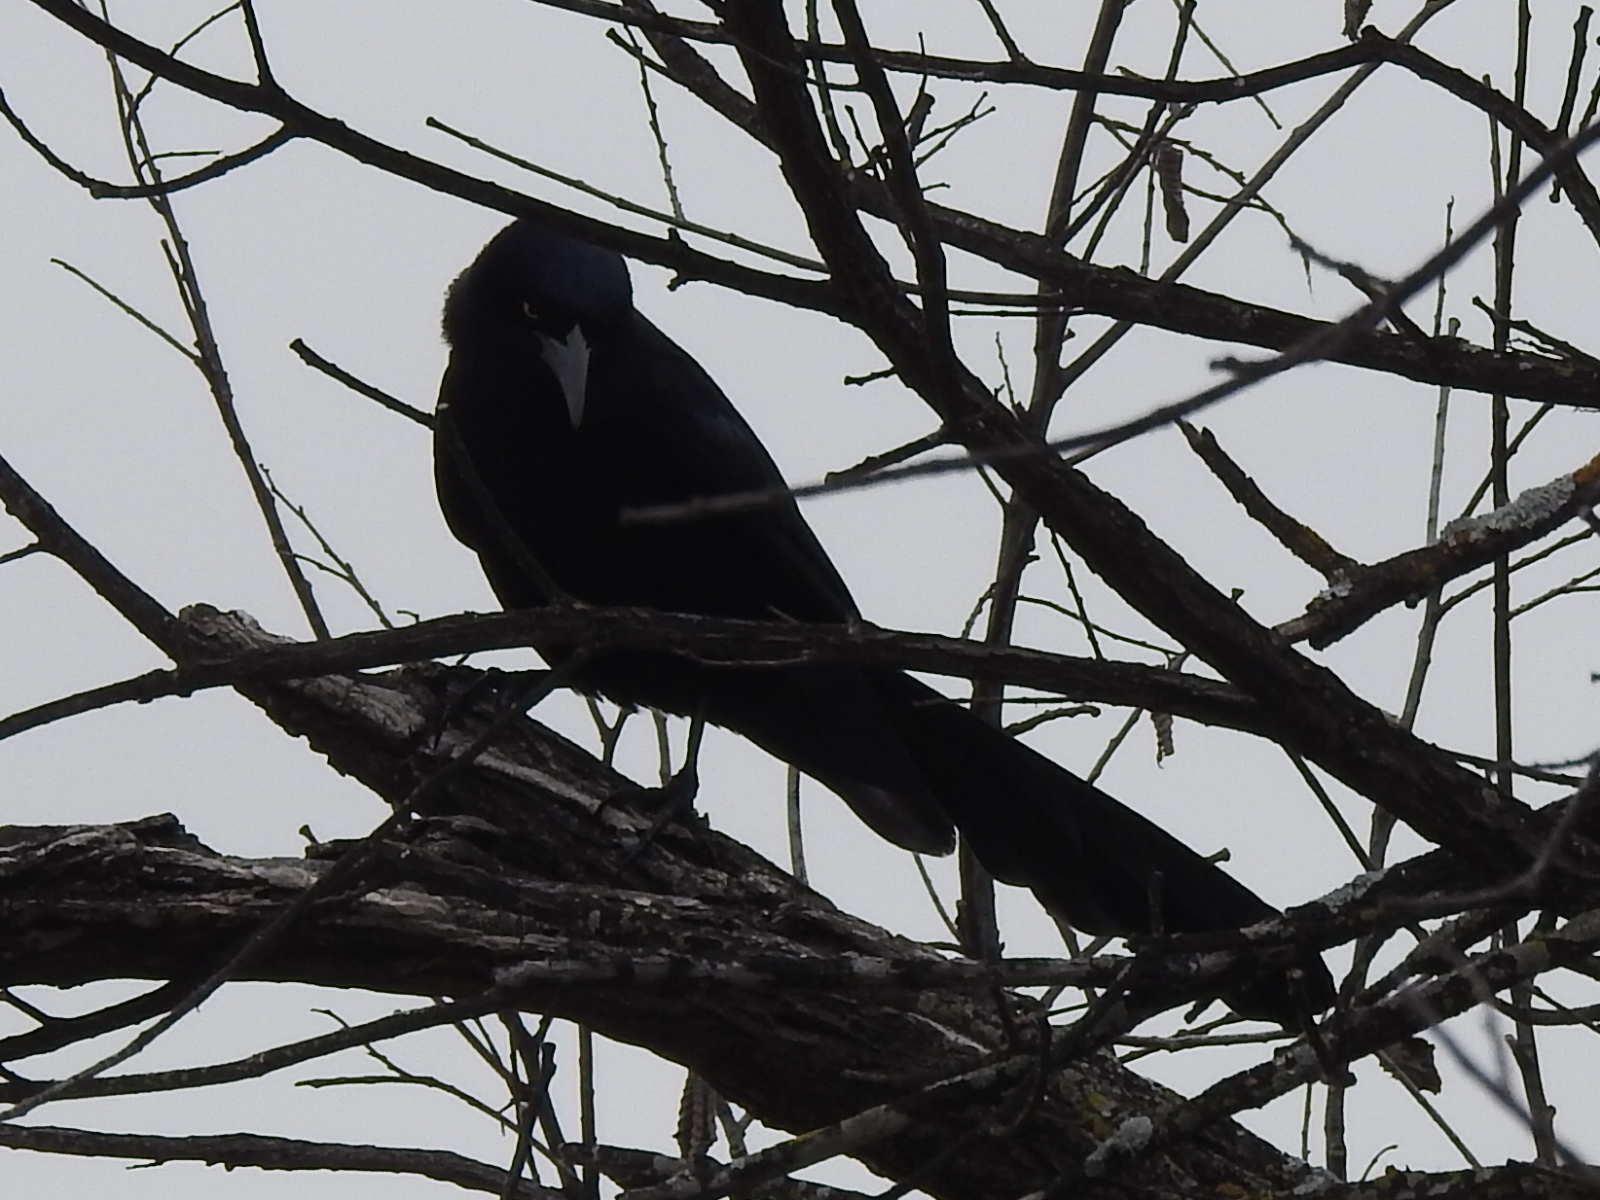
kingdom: Animalia
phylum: Chordata
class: Aves
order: Passeriformes
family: Icteridae
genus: Quiscalus
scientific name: Quiscalus mexicanus
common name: Great-tailed grackle
